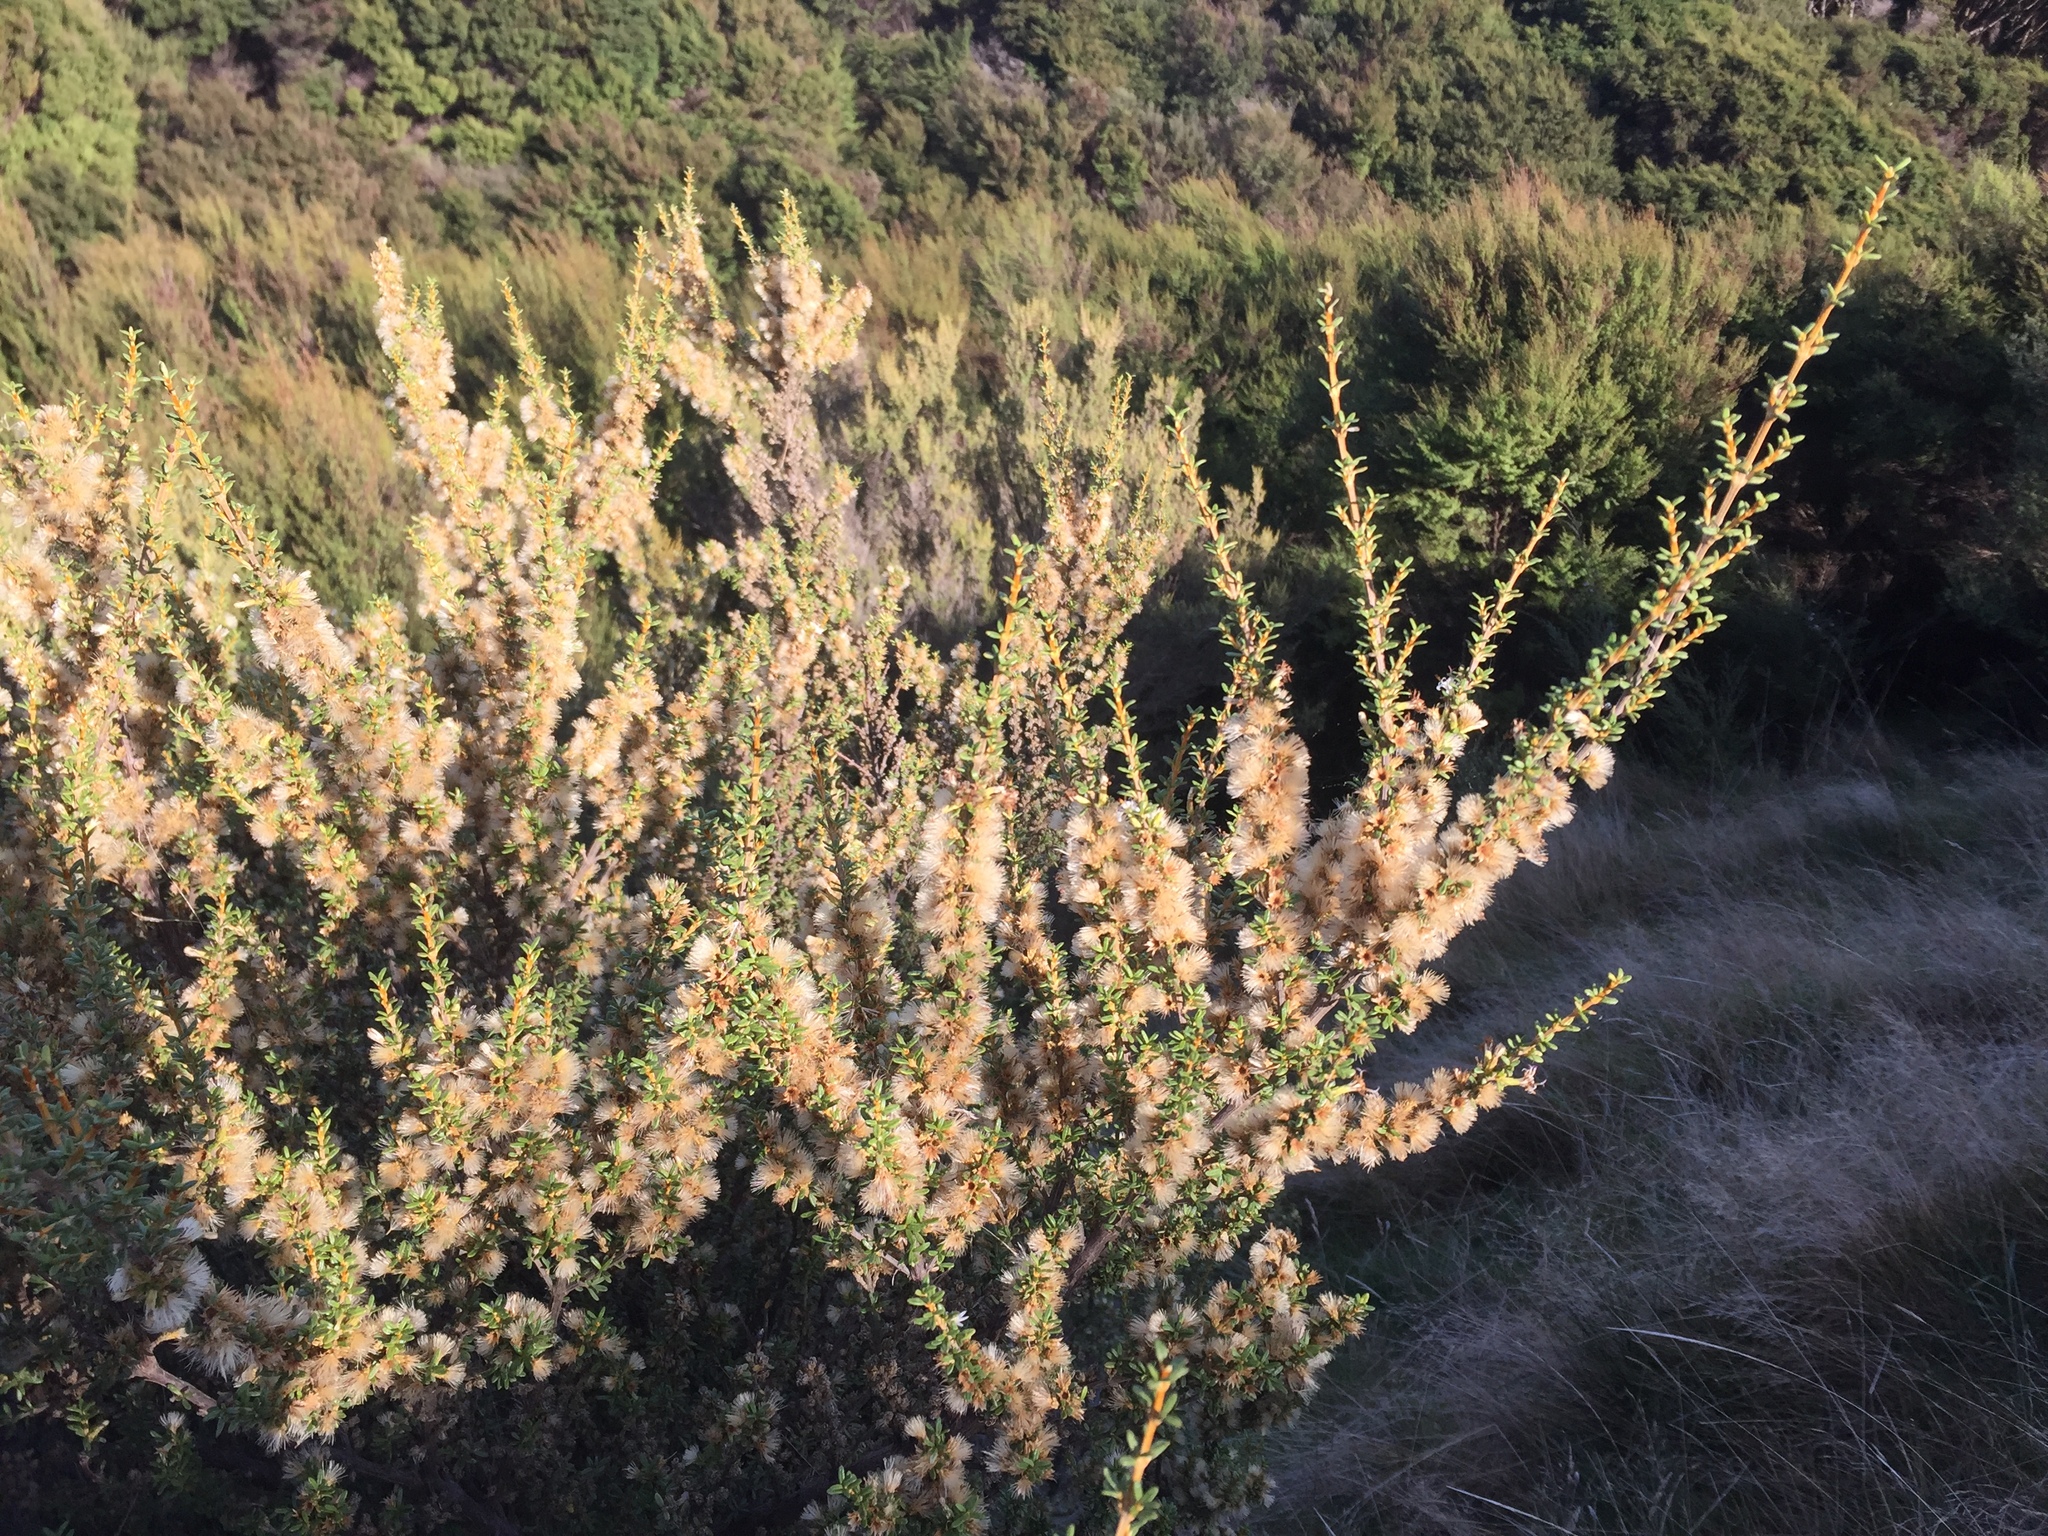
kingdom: Plantae
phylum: Tracheophyta
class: Magnoliopsida
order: Asterales
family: Asteraceae
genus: Olearia
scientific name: Olearia solandri
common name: Coastal daisybush
